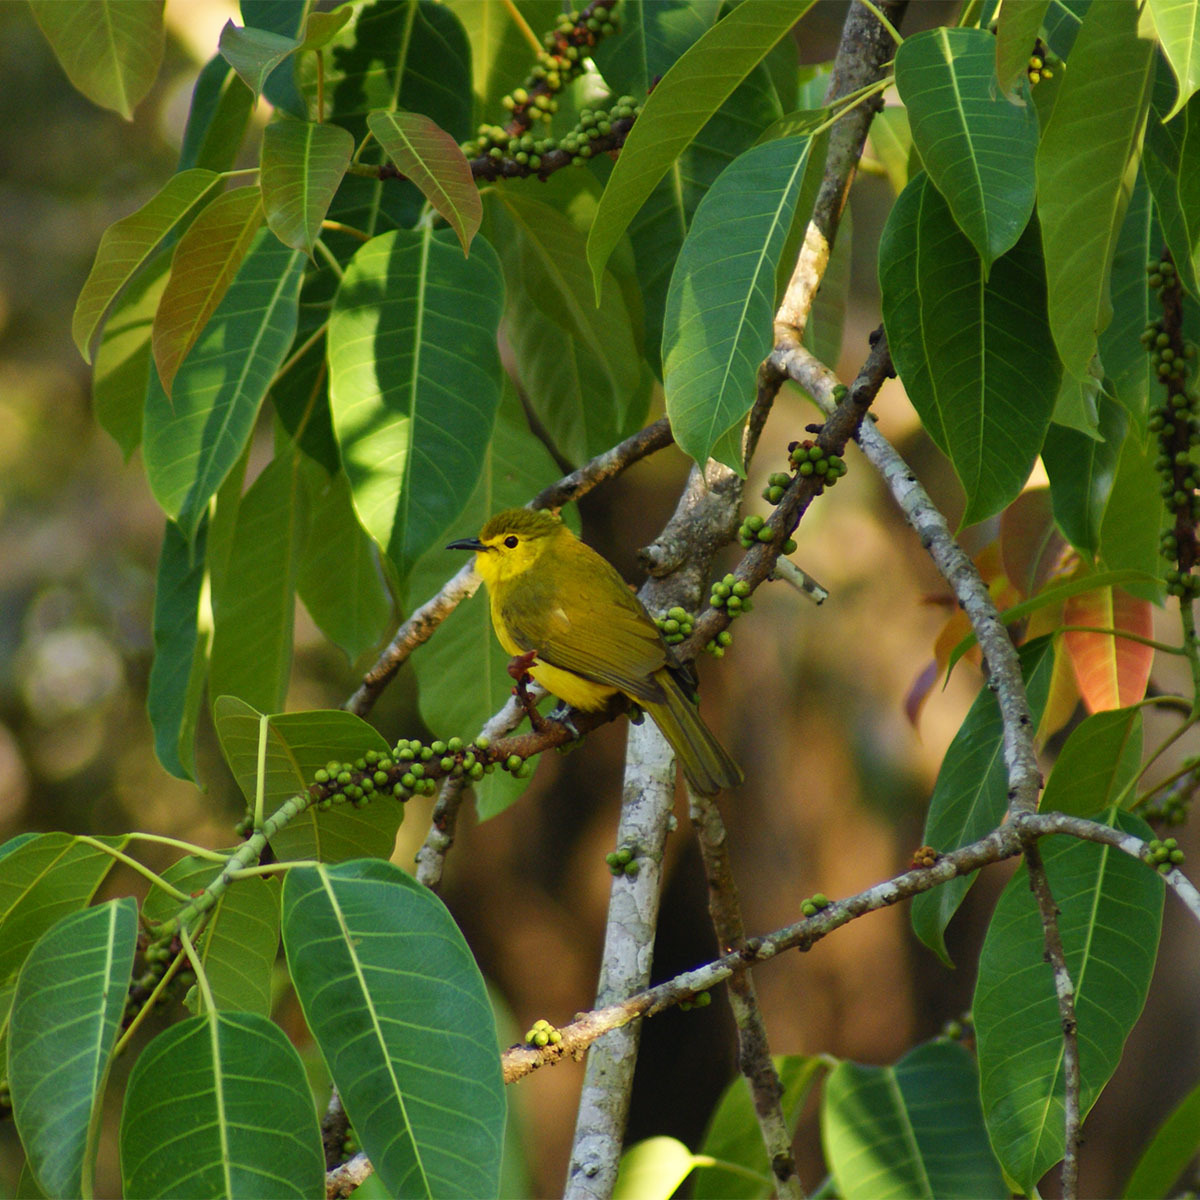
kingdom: Animalia
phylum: Chordata
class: Aves
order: Passeriformes
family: Pycnonotidae
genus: Acritillas
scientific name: Acritillas indica
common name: Yellow-browed bulbul
